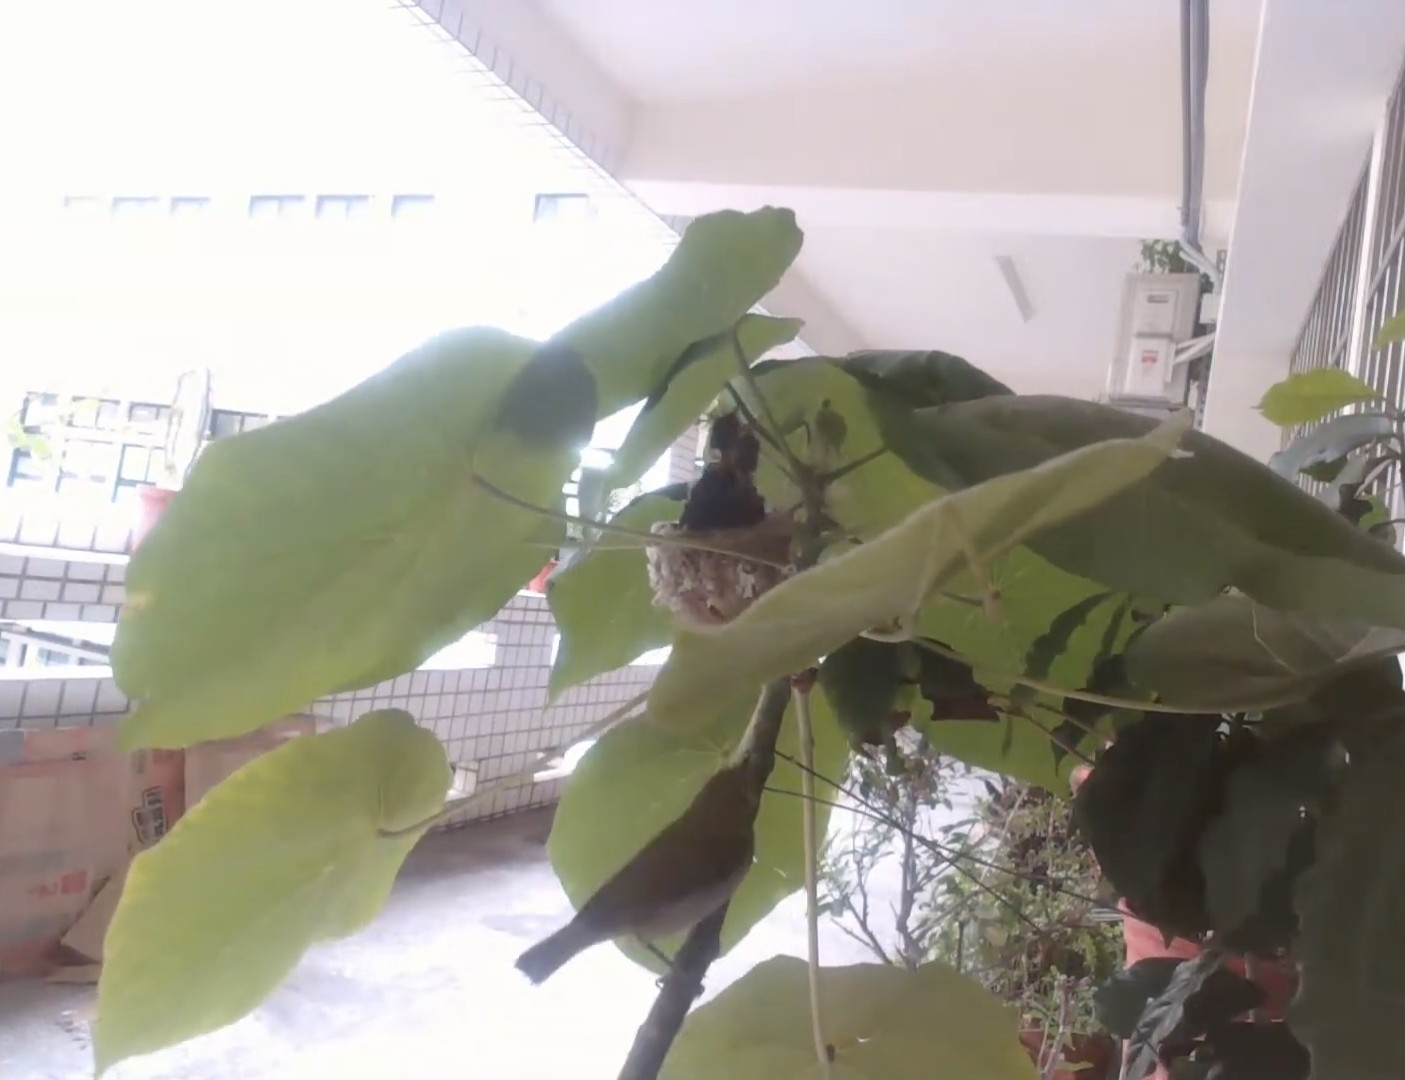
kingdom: Animalia
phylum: Chordata
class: Aves
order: Passeriformes
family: Zosteropidae
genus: Zosterops
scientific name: Zosterops simplex
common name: Swinhoe's white-eye
